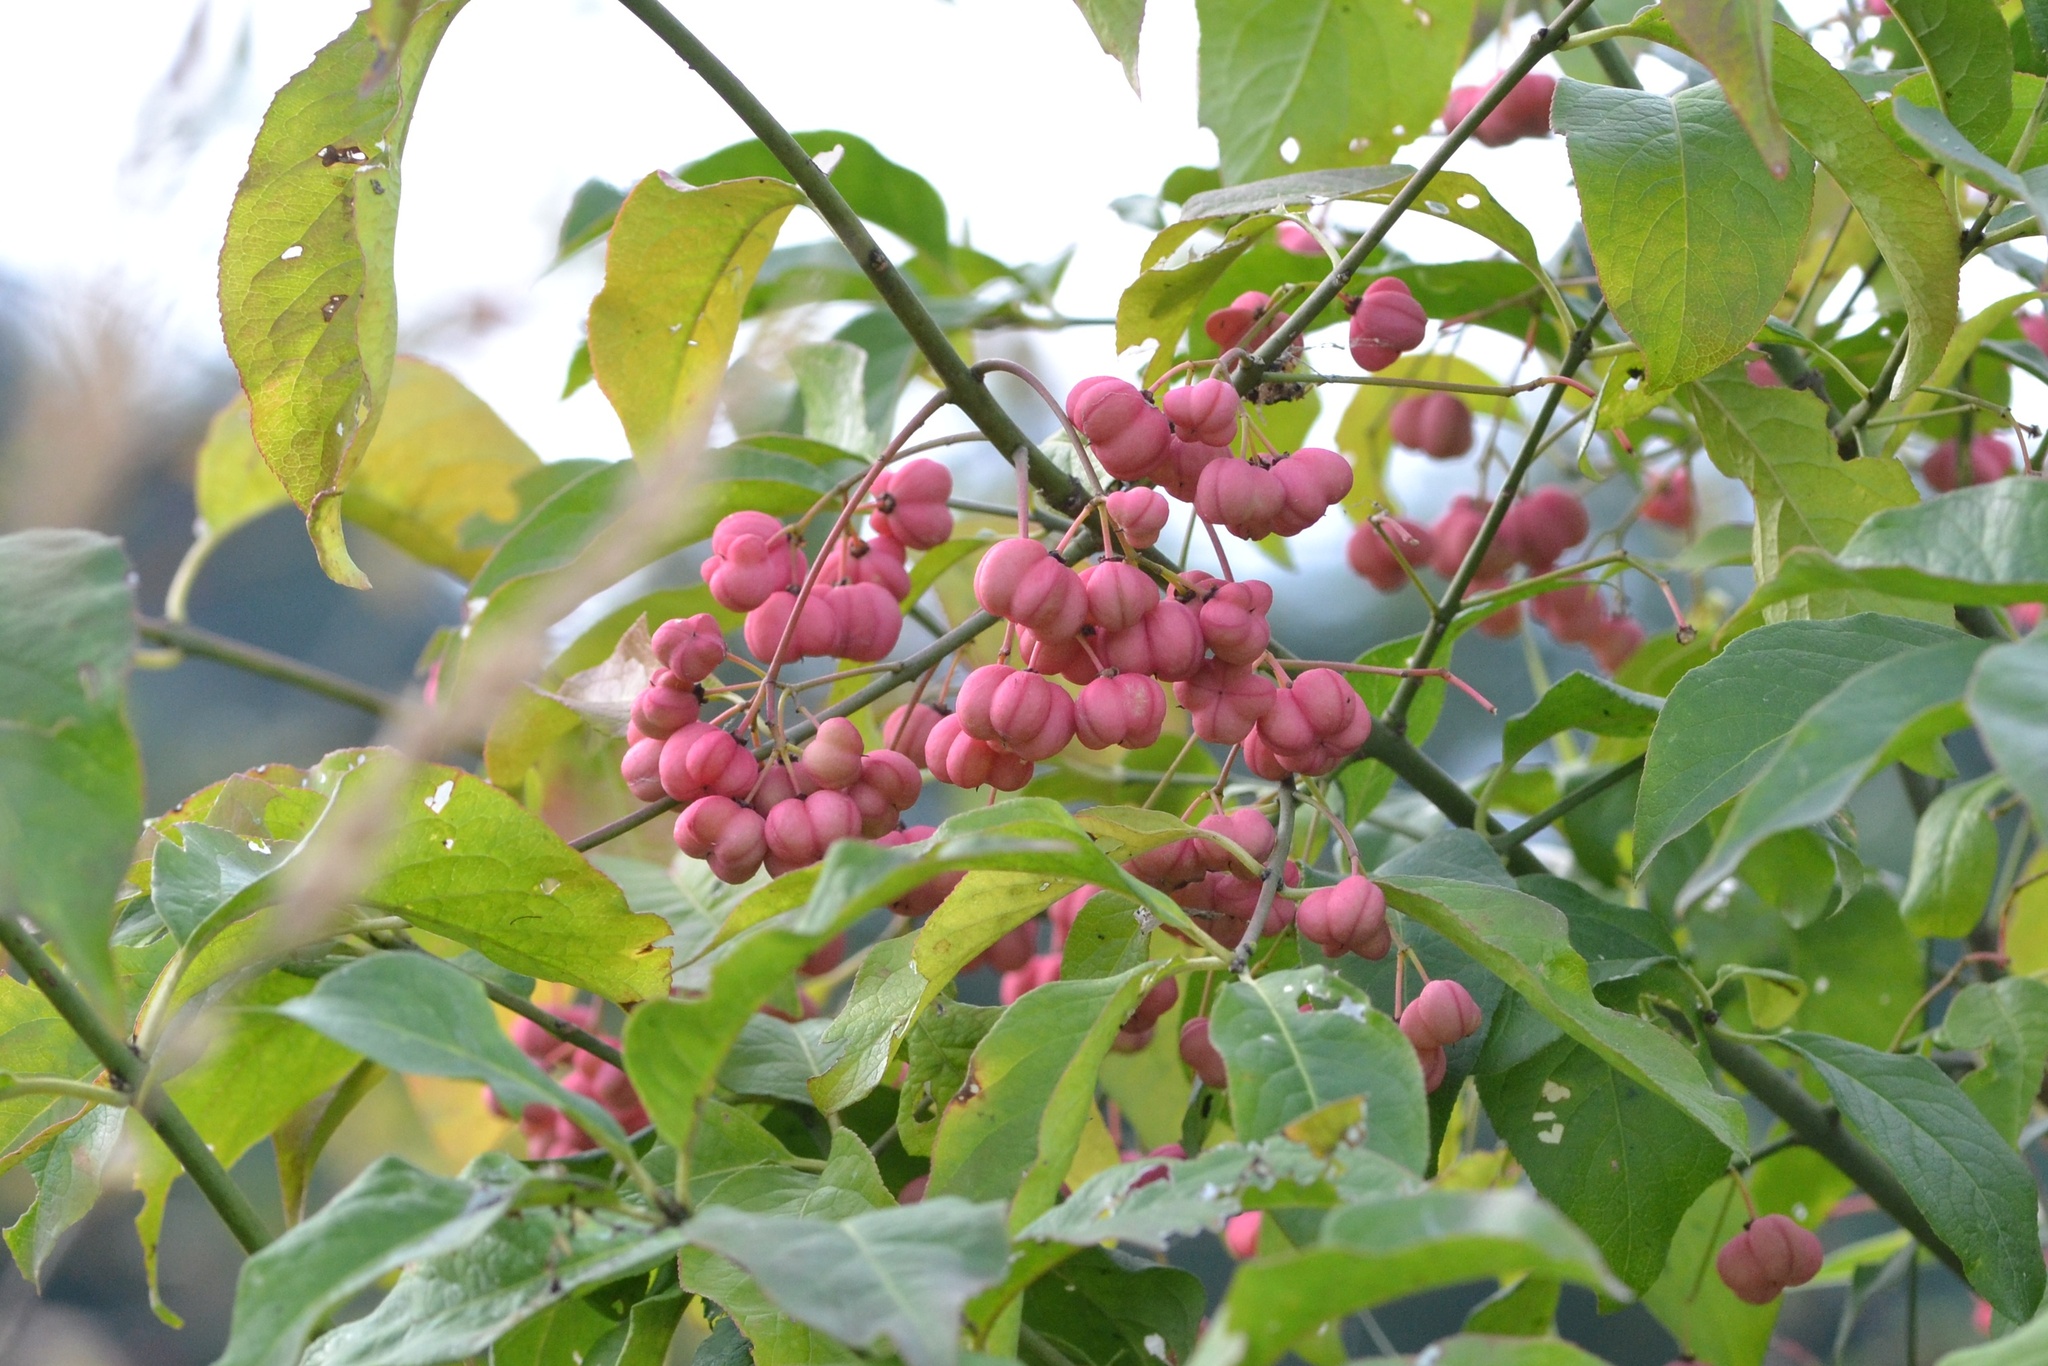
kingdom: Plantae
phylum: Tracheophyta
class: Magnoliopsida
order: Celastrales
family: Celastraceae
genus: Euonymus
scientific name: Euonymus europaeus
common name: Spindle
